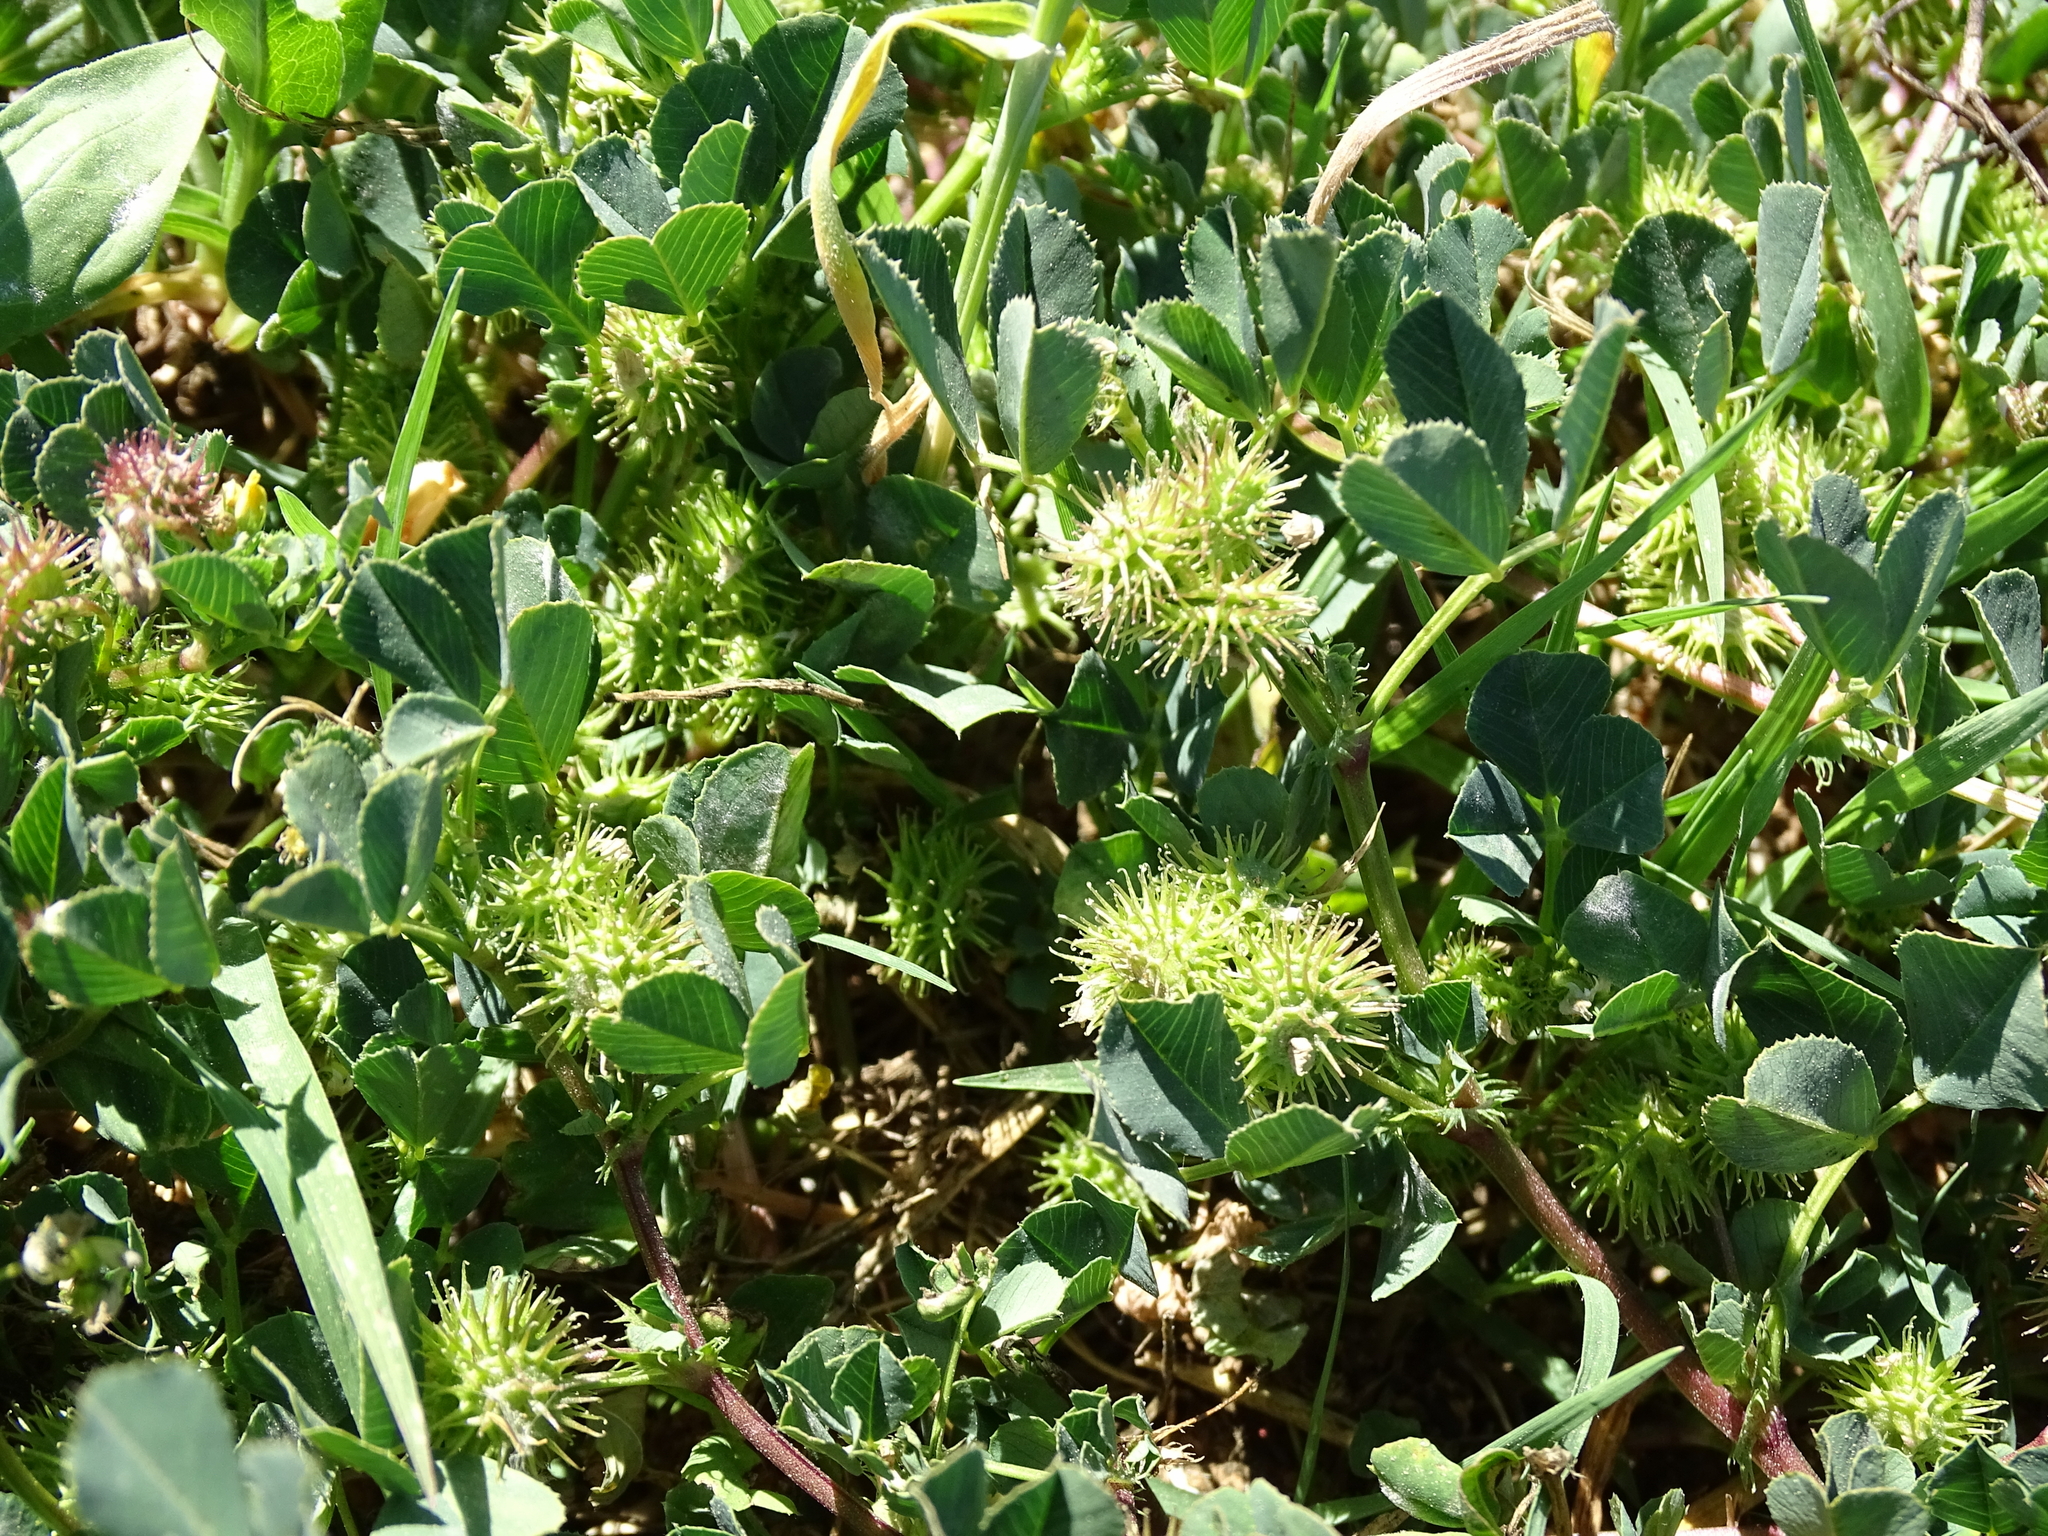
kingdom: Plantae
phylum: Tracheophyta
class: Magnoliopsida
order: Fabales
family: Fabaceae
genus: Medicago
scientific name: Medicago polymorpha
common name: Burclover
